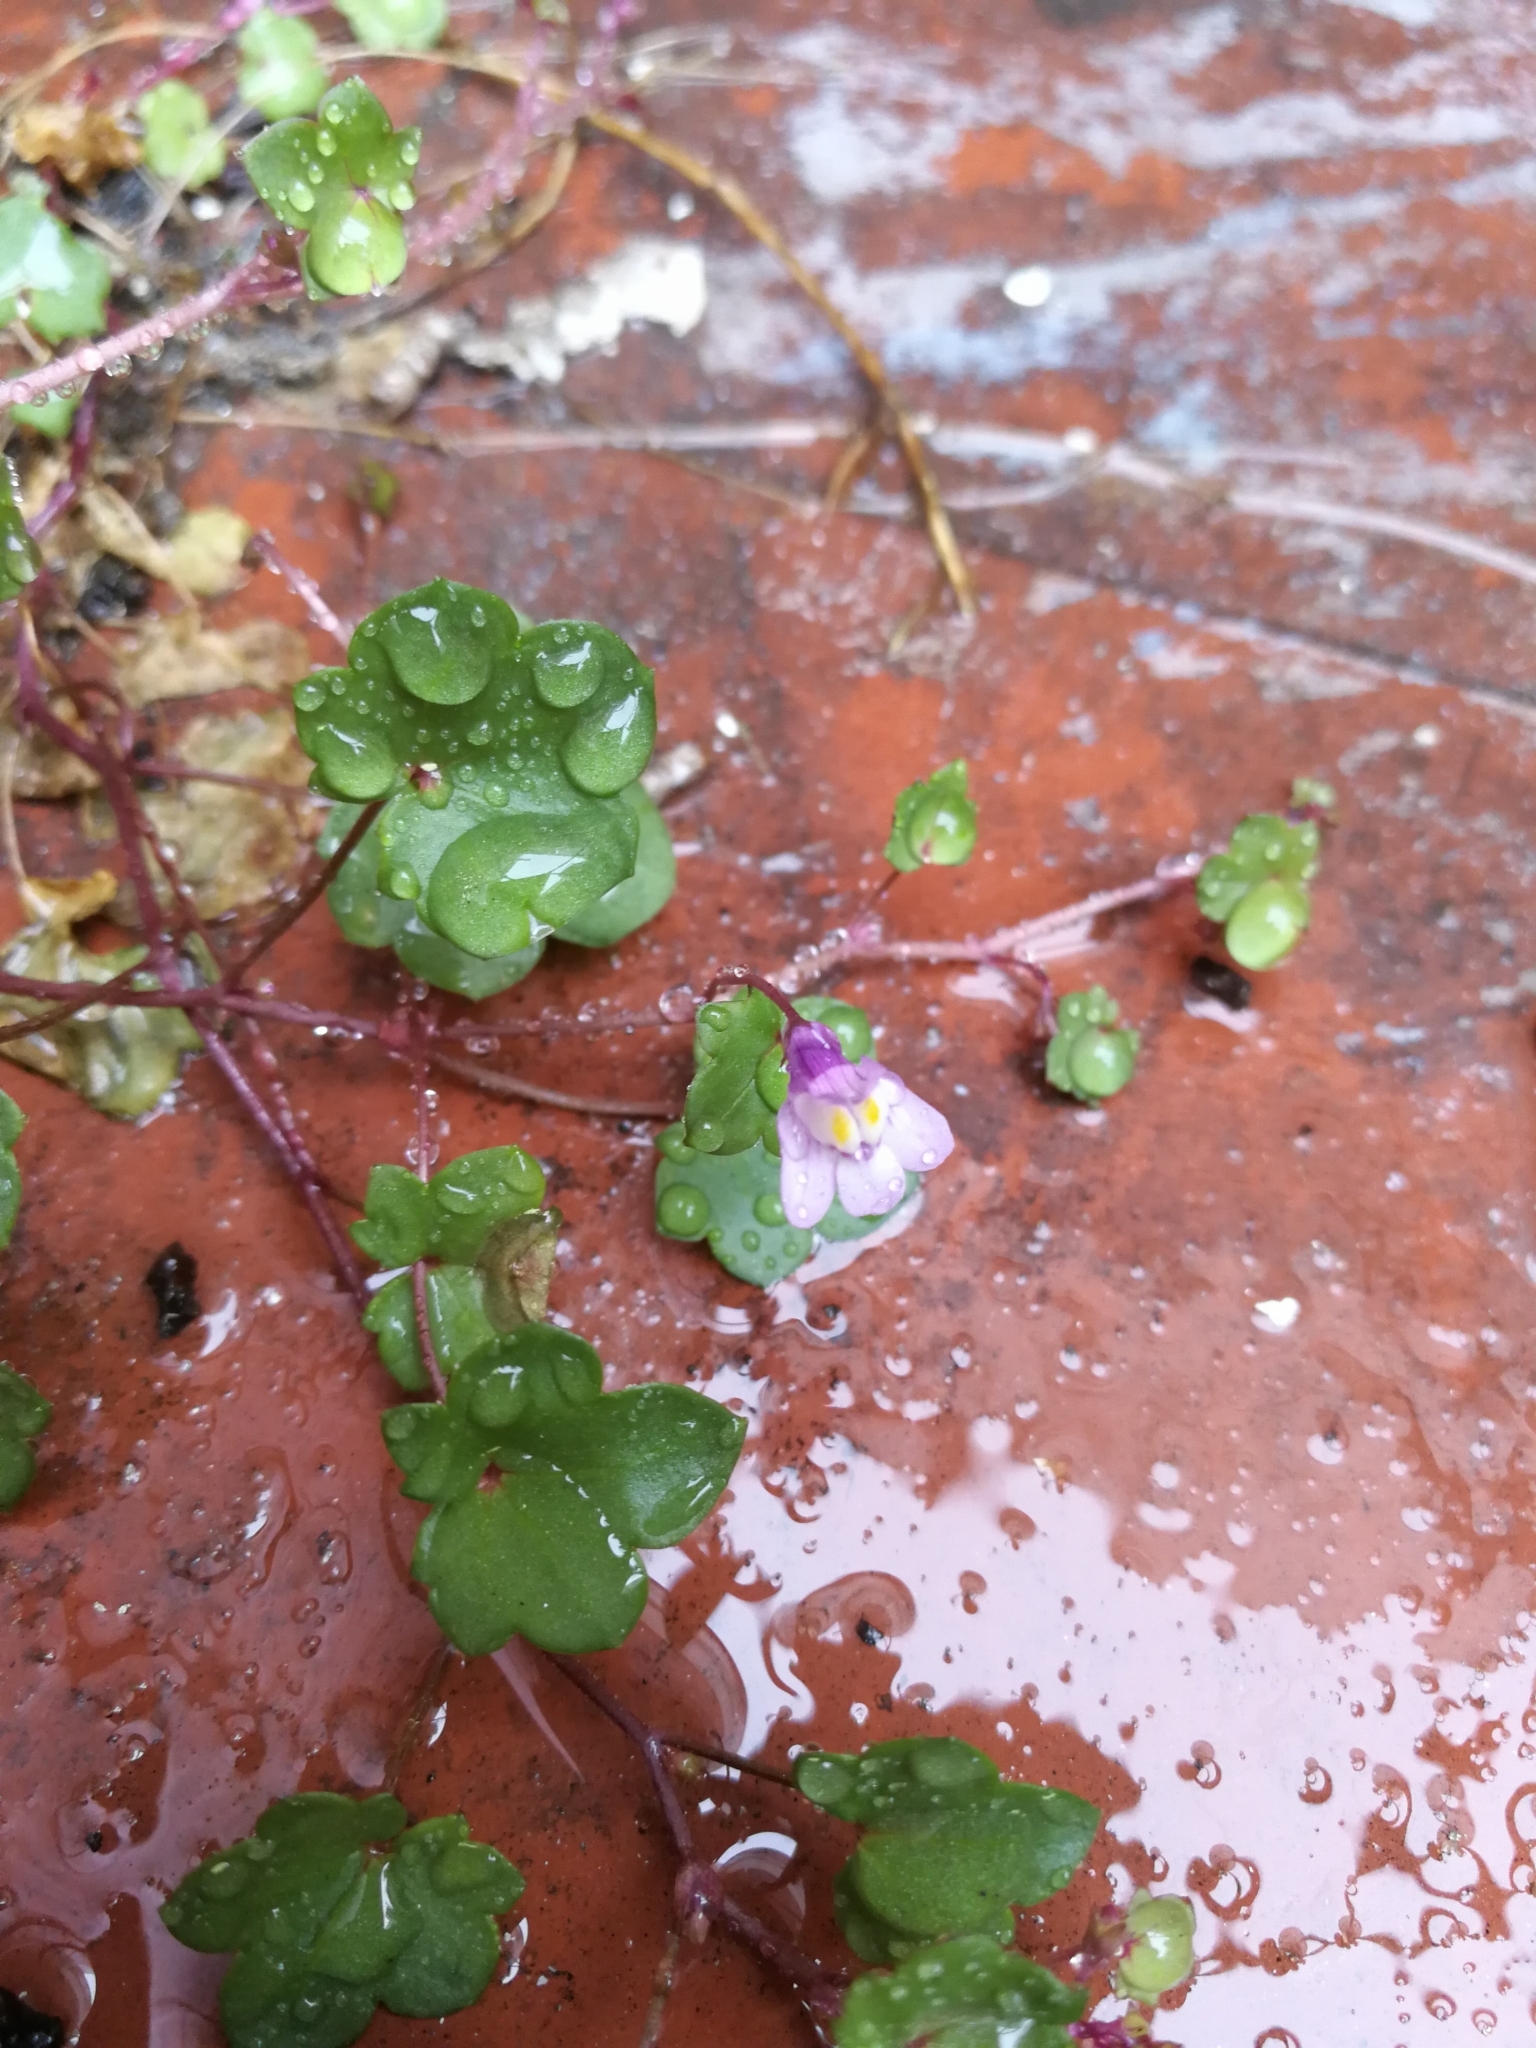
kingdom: Plantae
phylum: Tracheophyta
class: Magnoliopsida
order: Lamiales
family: Plantaginaceae
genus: Cymbalaria
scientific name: Cymbalaria muralis
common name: Ivy-leaved toadflax
